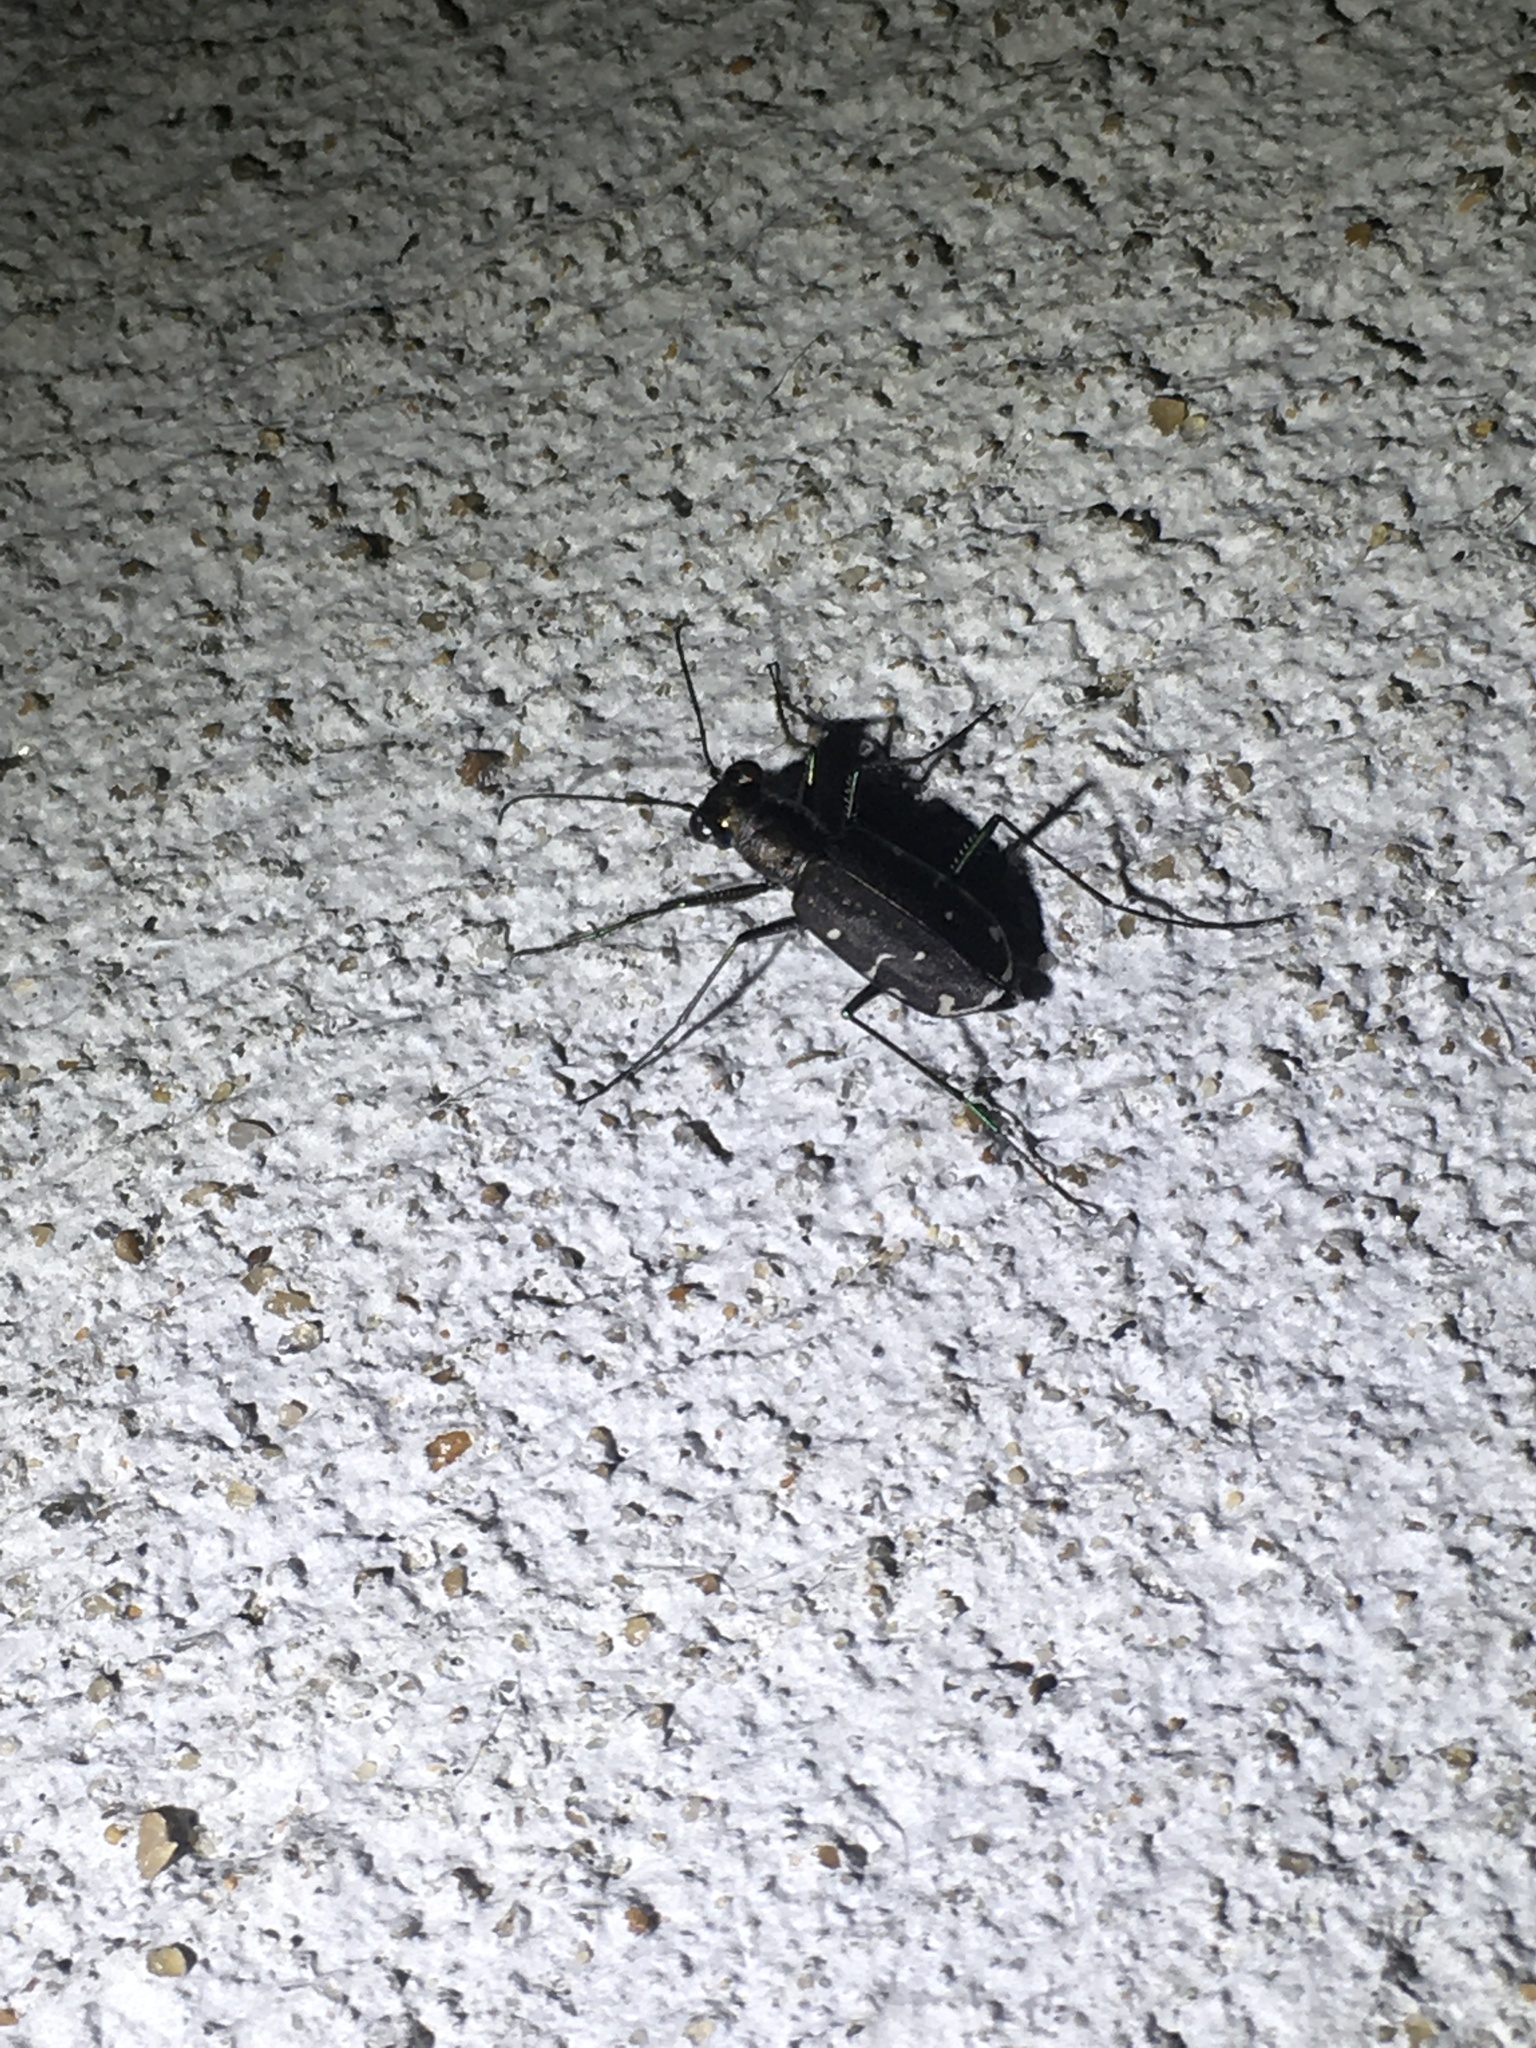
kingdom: Animalia
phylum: Arthropoda
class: Insecta
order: Coleoptera
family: Carabidae
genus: Cicindela
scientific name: Cicindela punctulata
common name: Punctured tiger beetle
